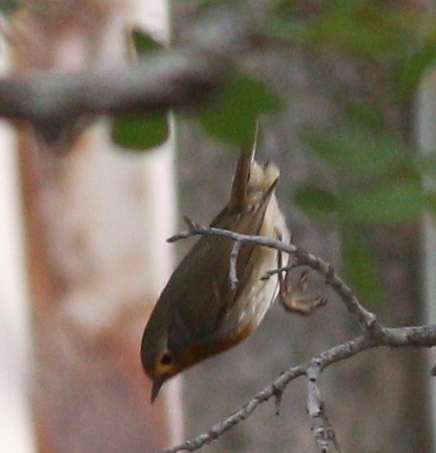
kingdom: Animalia
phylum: Chordata
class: Aves
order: Passeriformes
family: Muscicapidae
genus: Erithacus
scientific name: Erithacus rubecula
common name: European robin
